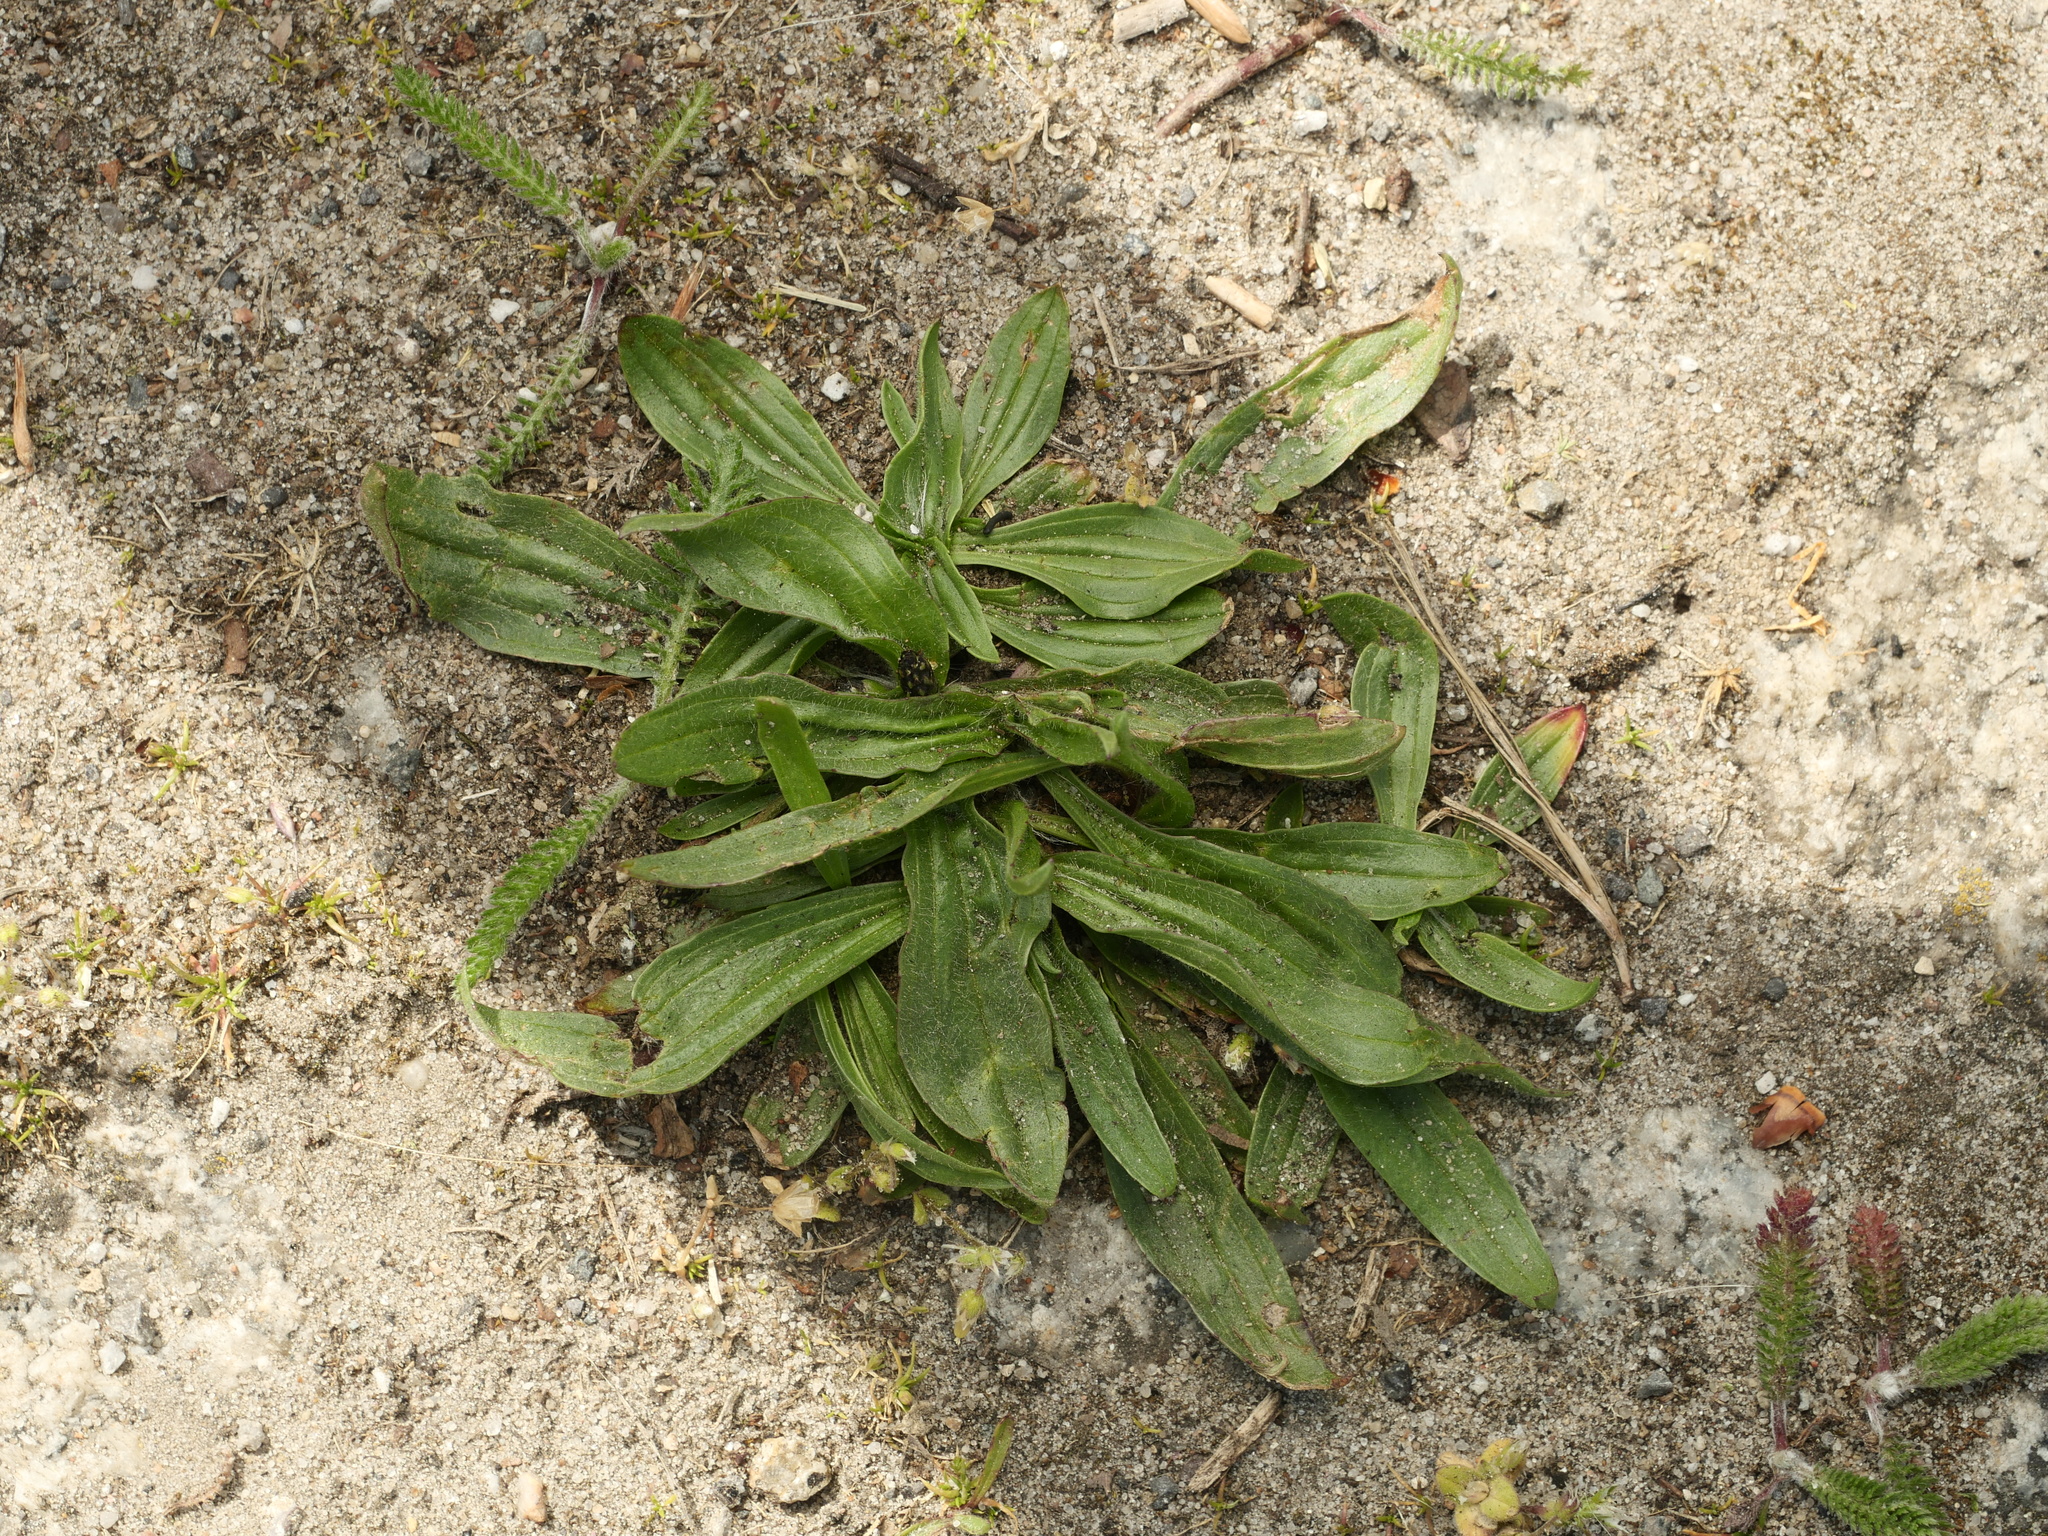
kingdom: Plantae
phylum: Tracheophyta
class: Magnoliopsida
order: Lamiales
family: Plantaginaceae
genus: Plantago
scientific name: Plantago lanceolata
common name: Ribwort plantain
